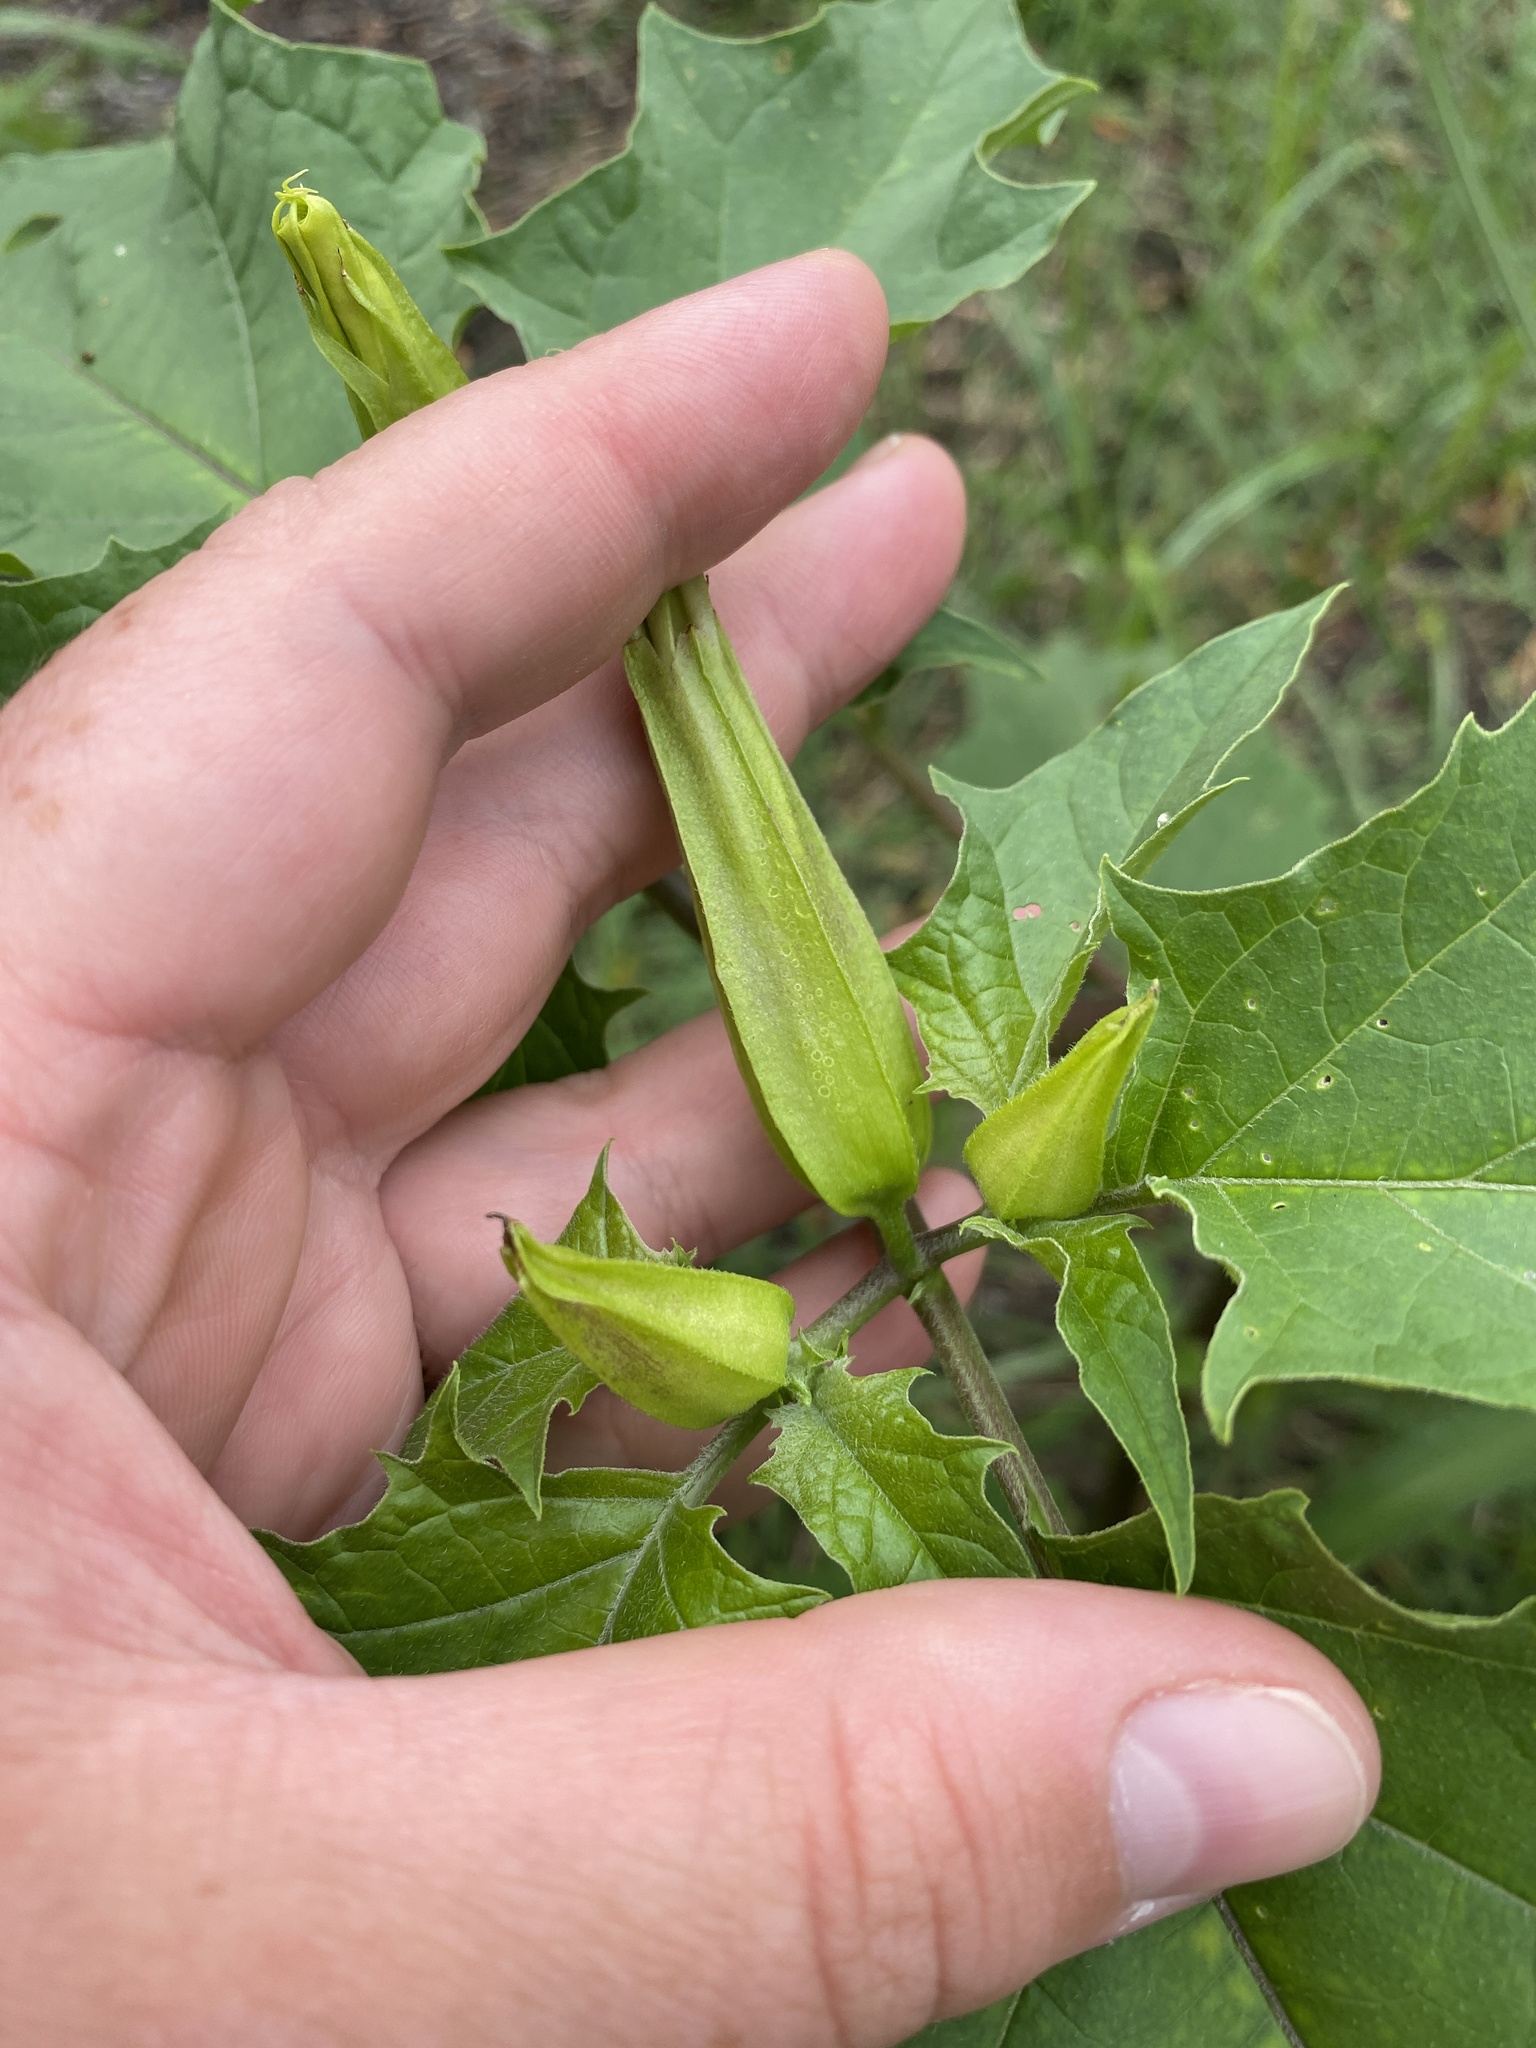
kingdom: Plantae
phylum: Tracheophyta
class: Magnoliopsida
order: Solanales
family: Solanaceae
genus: Datura
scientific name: Datura stramonium
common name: Thorn-apple
